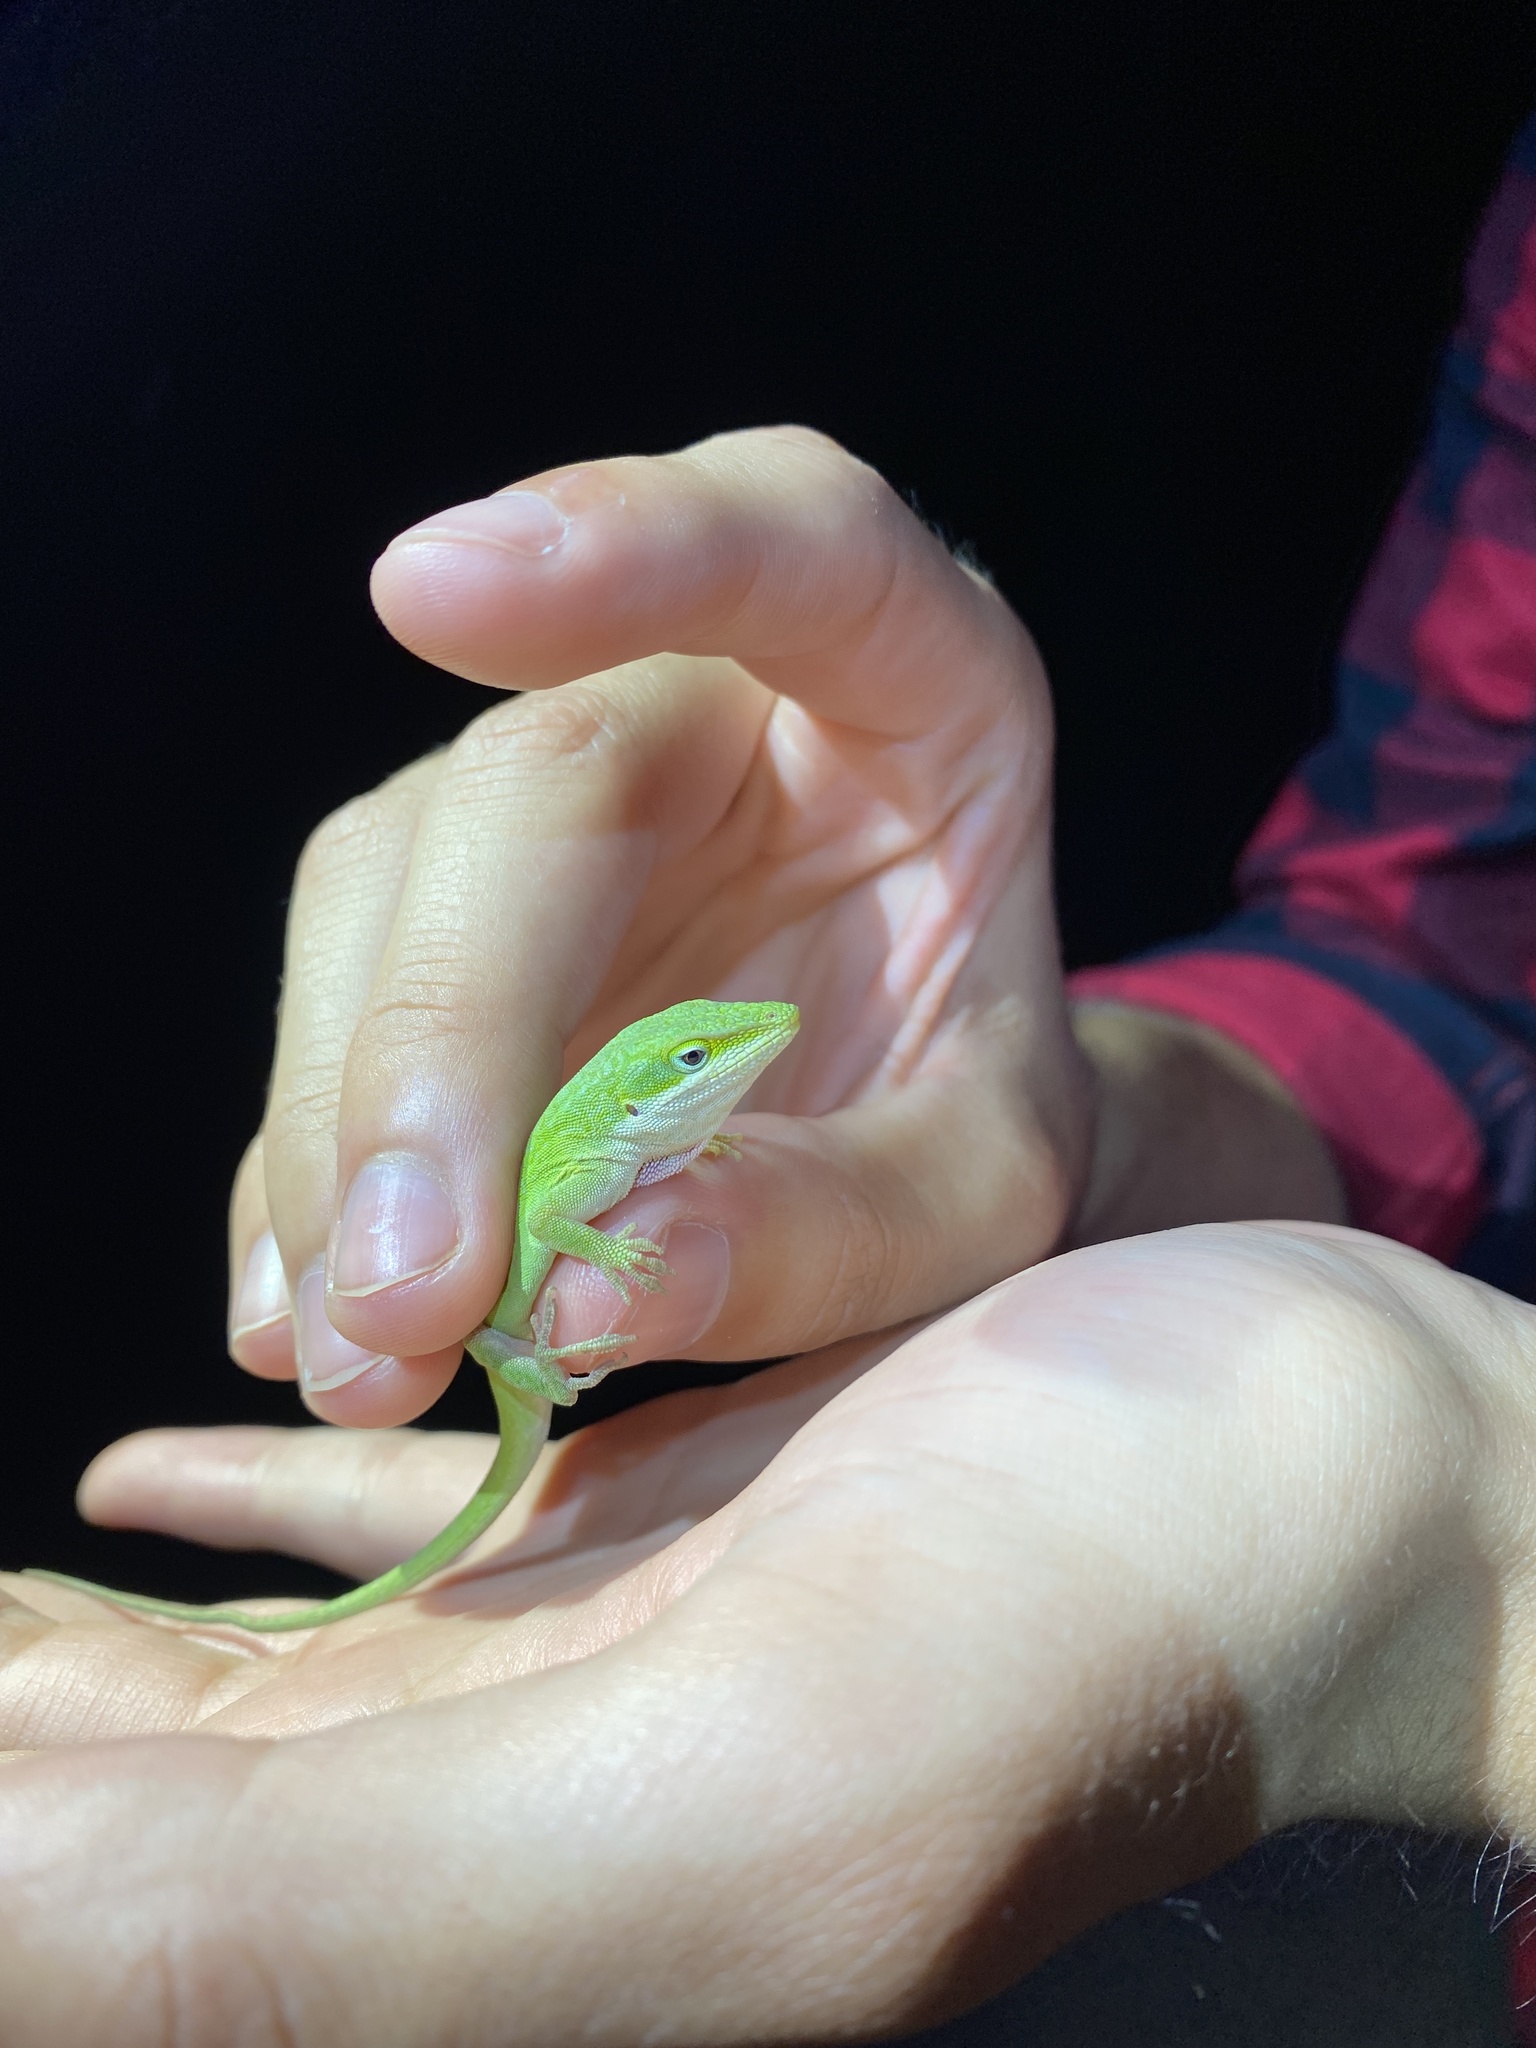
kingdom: Animalia
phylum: Chordata
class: Squamata
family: Dactyloidae
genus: Anolis
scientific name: Anolis carolinensis
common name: Green anole
